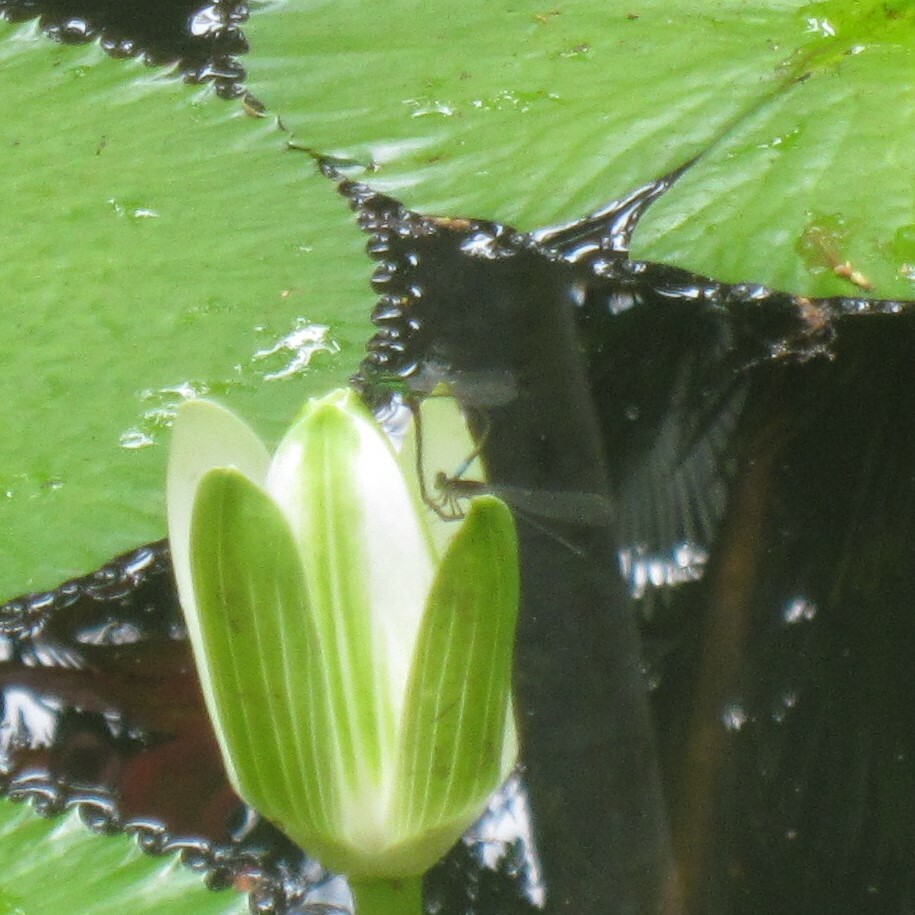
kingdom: Animalia
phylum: Arthropoda
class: Insecta
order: Odonata
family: Coenagrionidae
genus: Ischnura
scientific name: Ischnura ramburii
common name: Rambur's forktail
